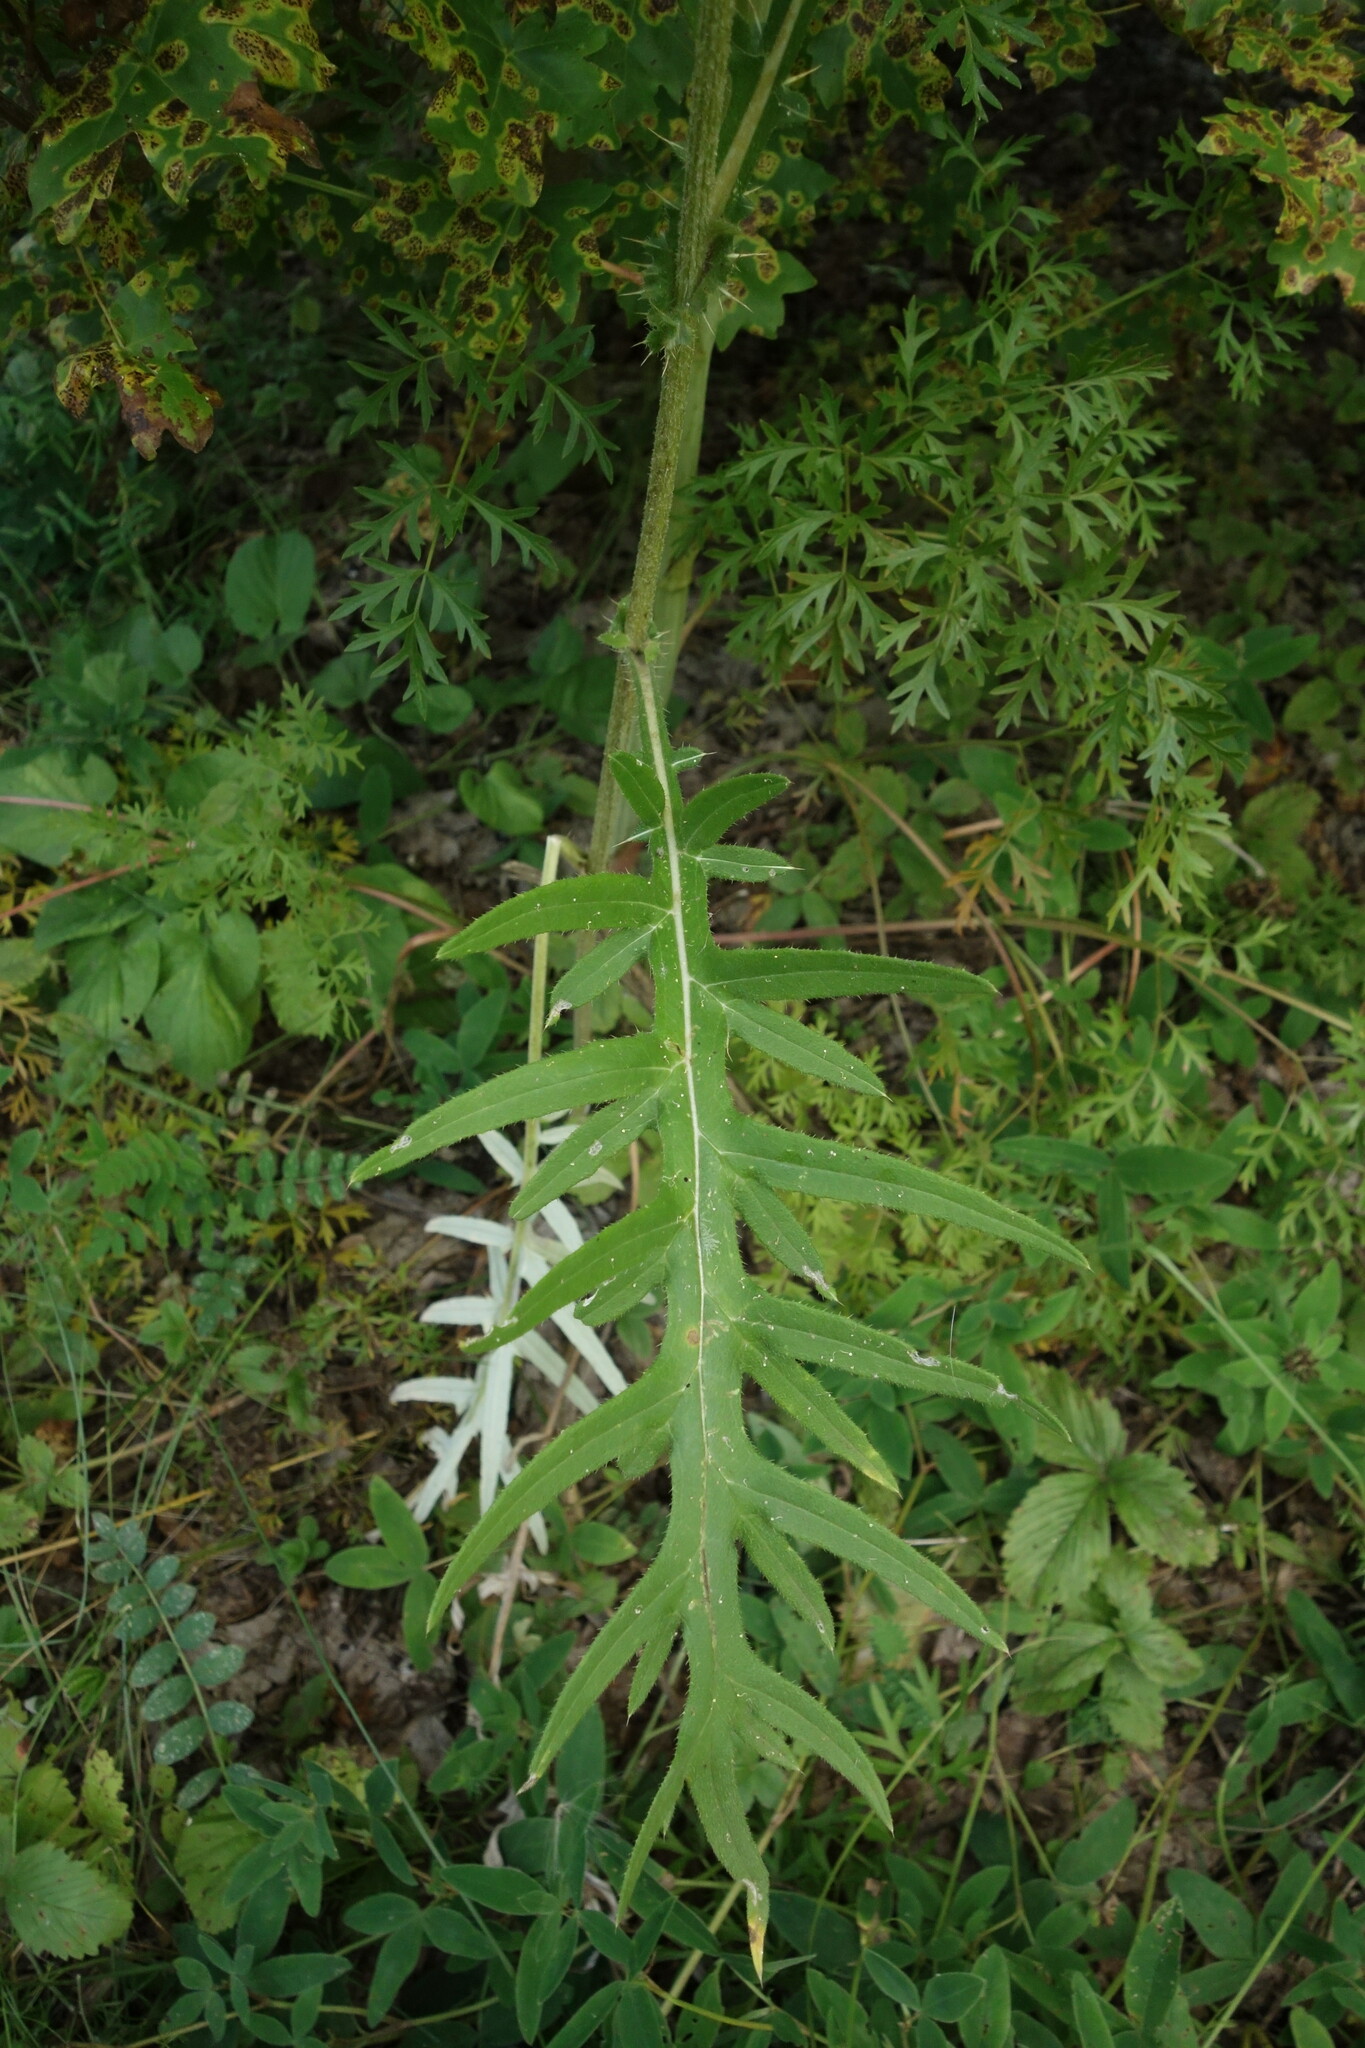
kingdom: Plantae
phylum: Tracheophyta
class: Magnoliopsida
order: Asterales
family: Asteraceae
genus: Cirsium
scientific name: Cirsium serrulatum
